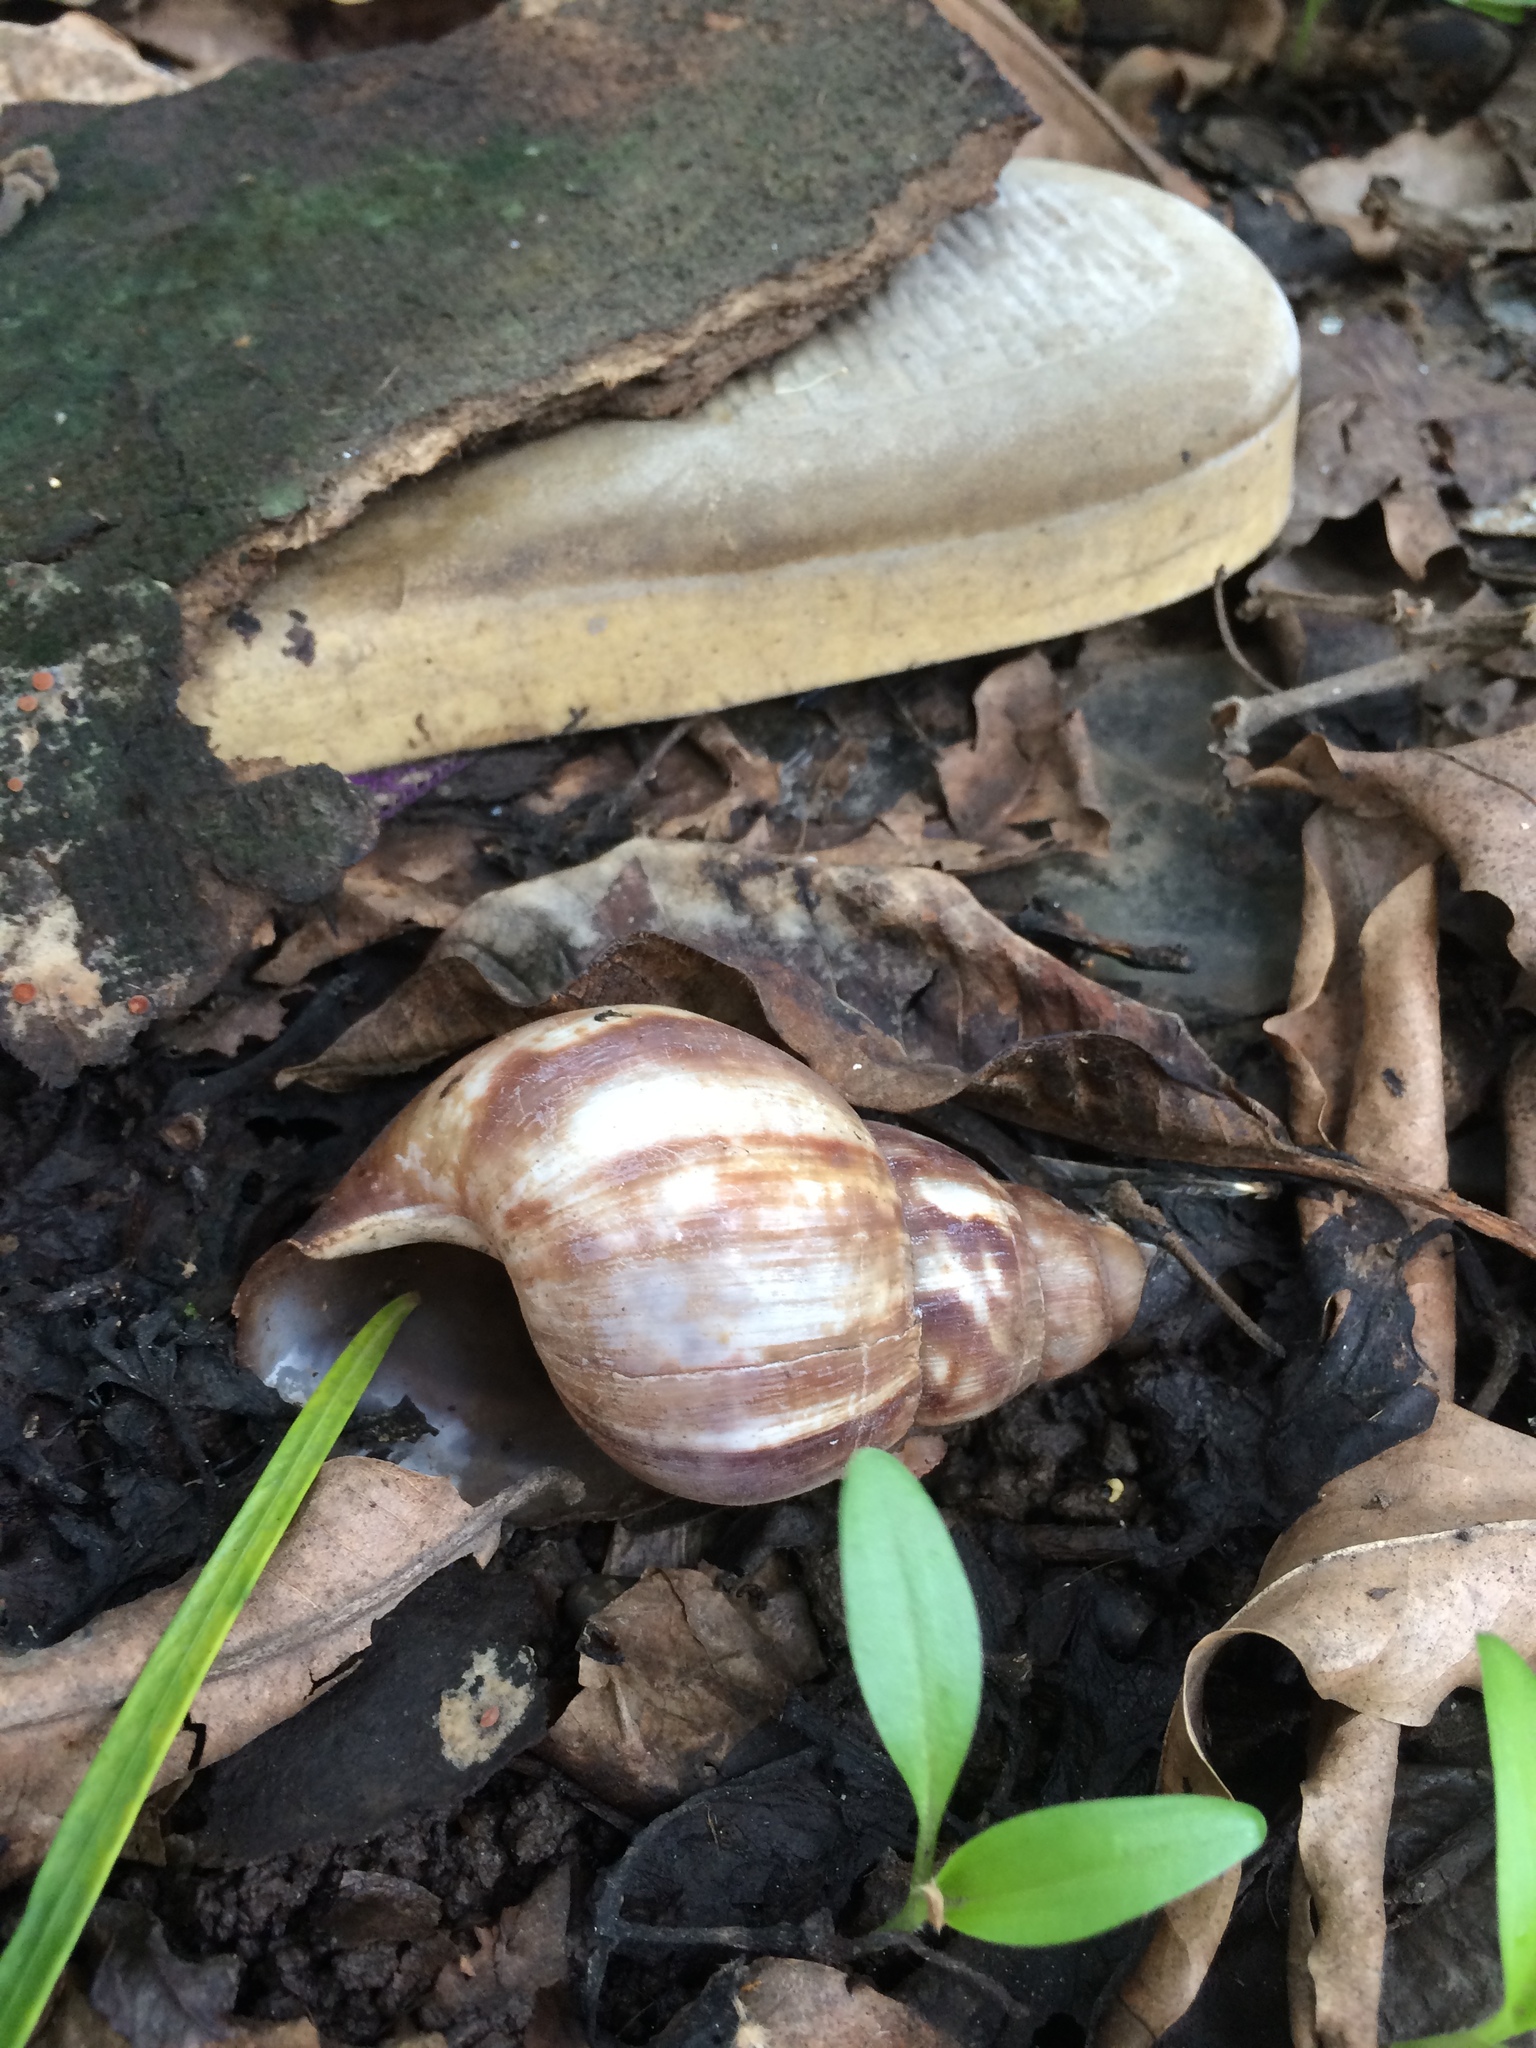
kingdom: Animalia
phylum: Mollusca
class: Gastropoda
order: Stylommatophora
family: Achatinidae
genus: Lissachatina
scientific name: Lissachatina fulica
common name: Giant african snail
